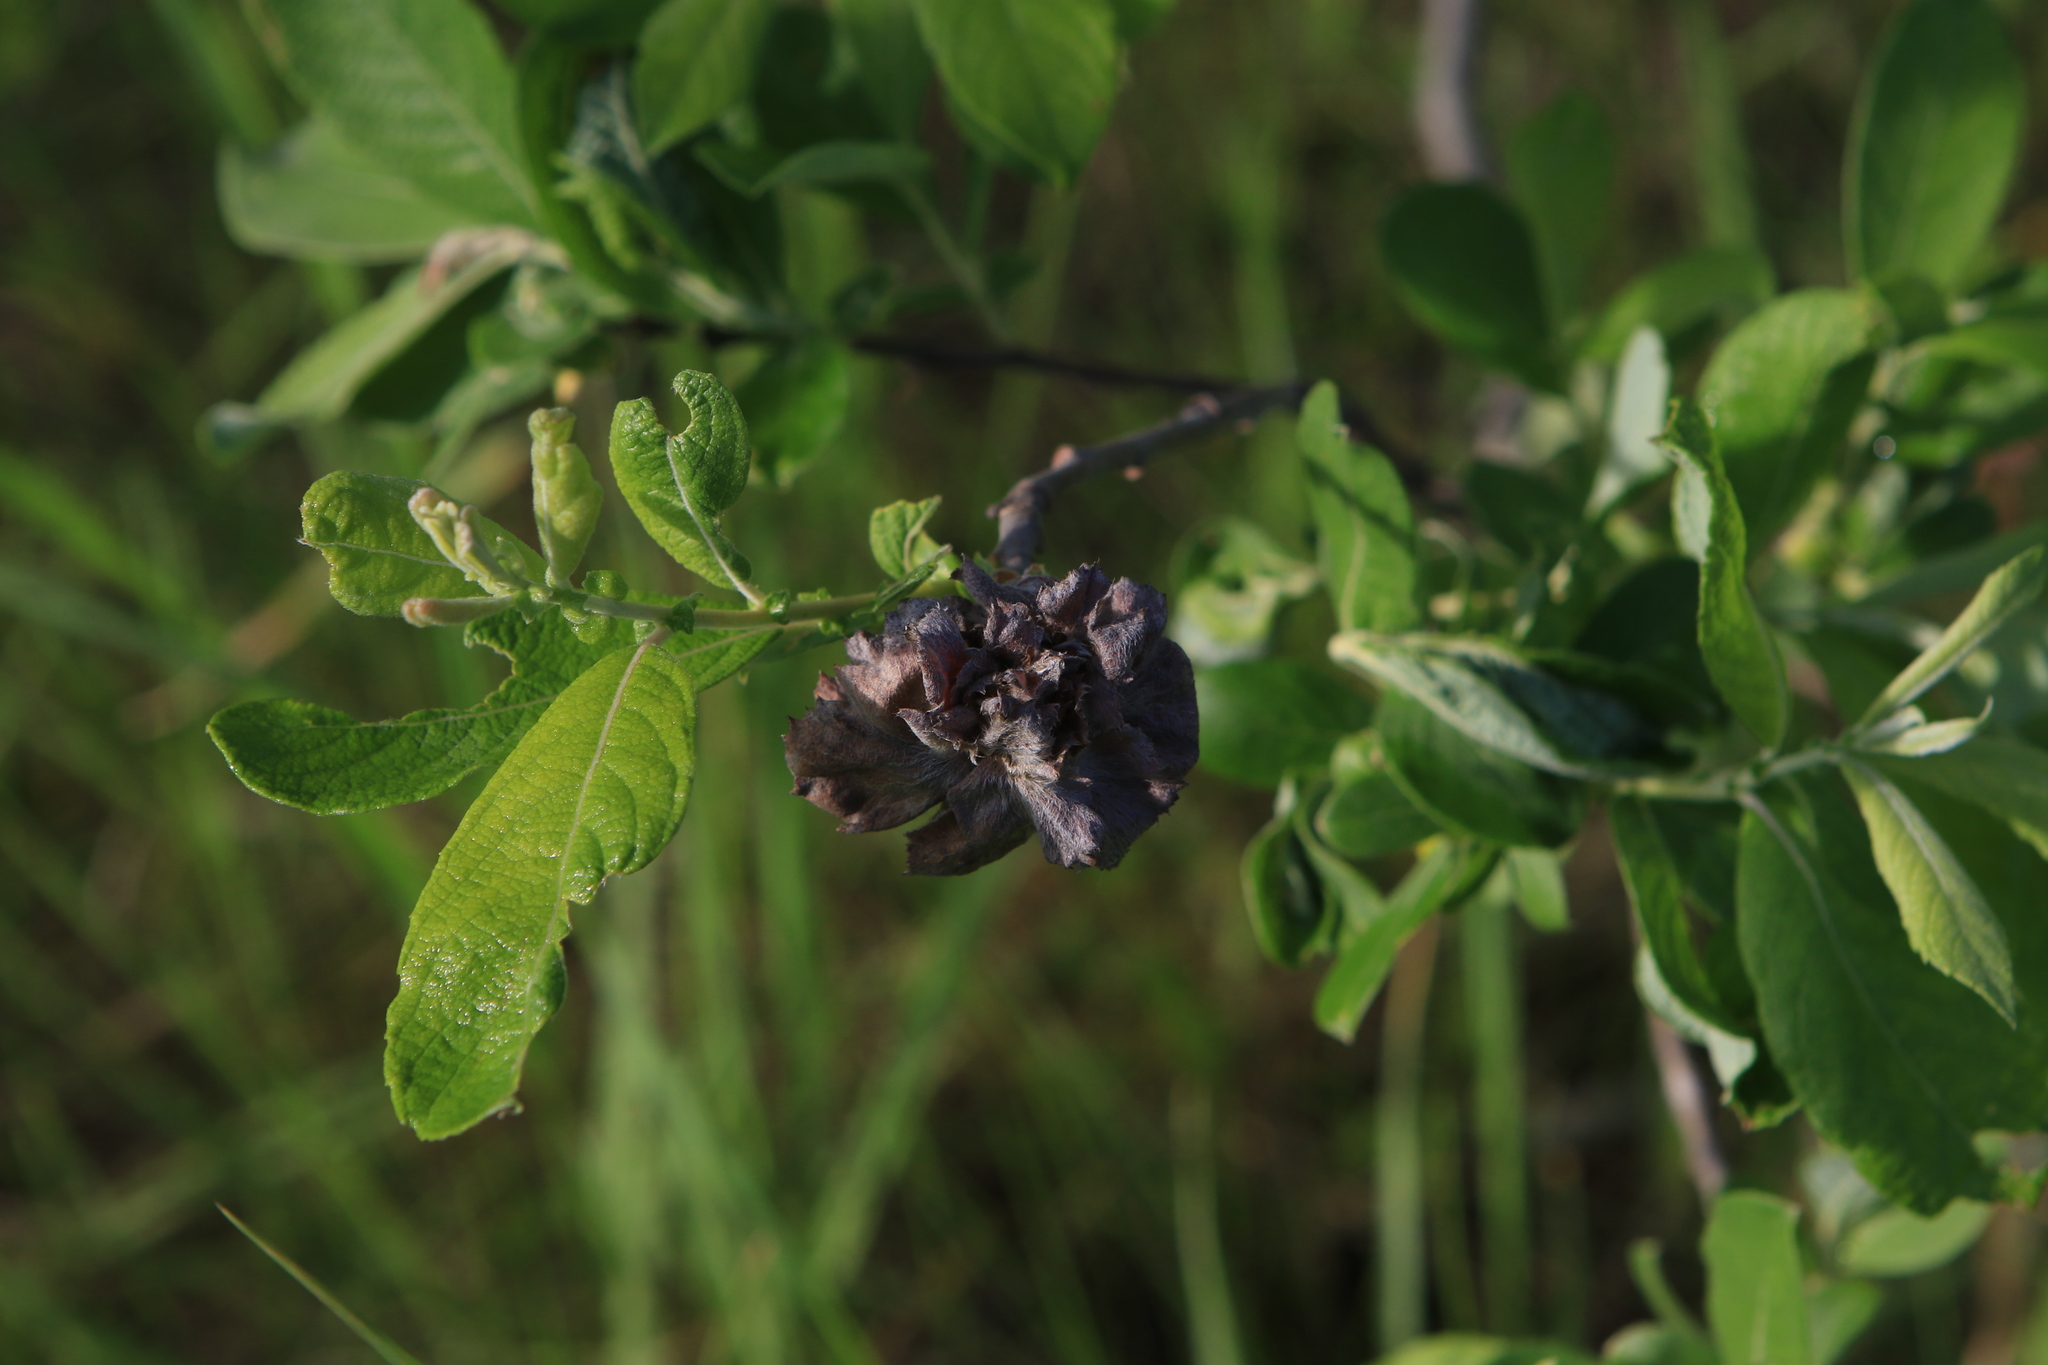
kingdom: Animalia
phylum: Arthropoda
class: Insecta
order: Diptera
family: Cecidomyiidae
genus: Rabdophaga
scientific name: Rabdophaga rosaria
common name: Willow rose gall midge
